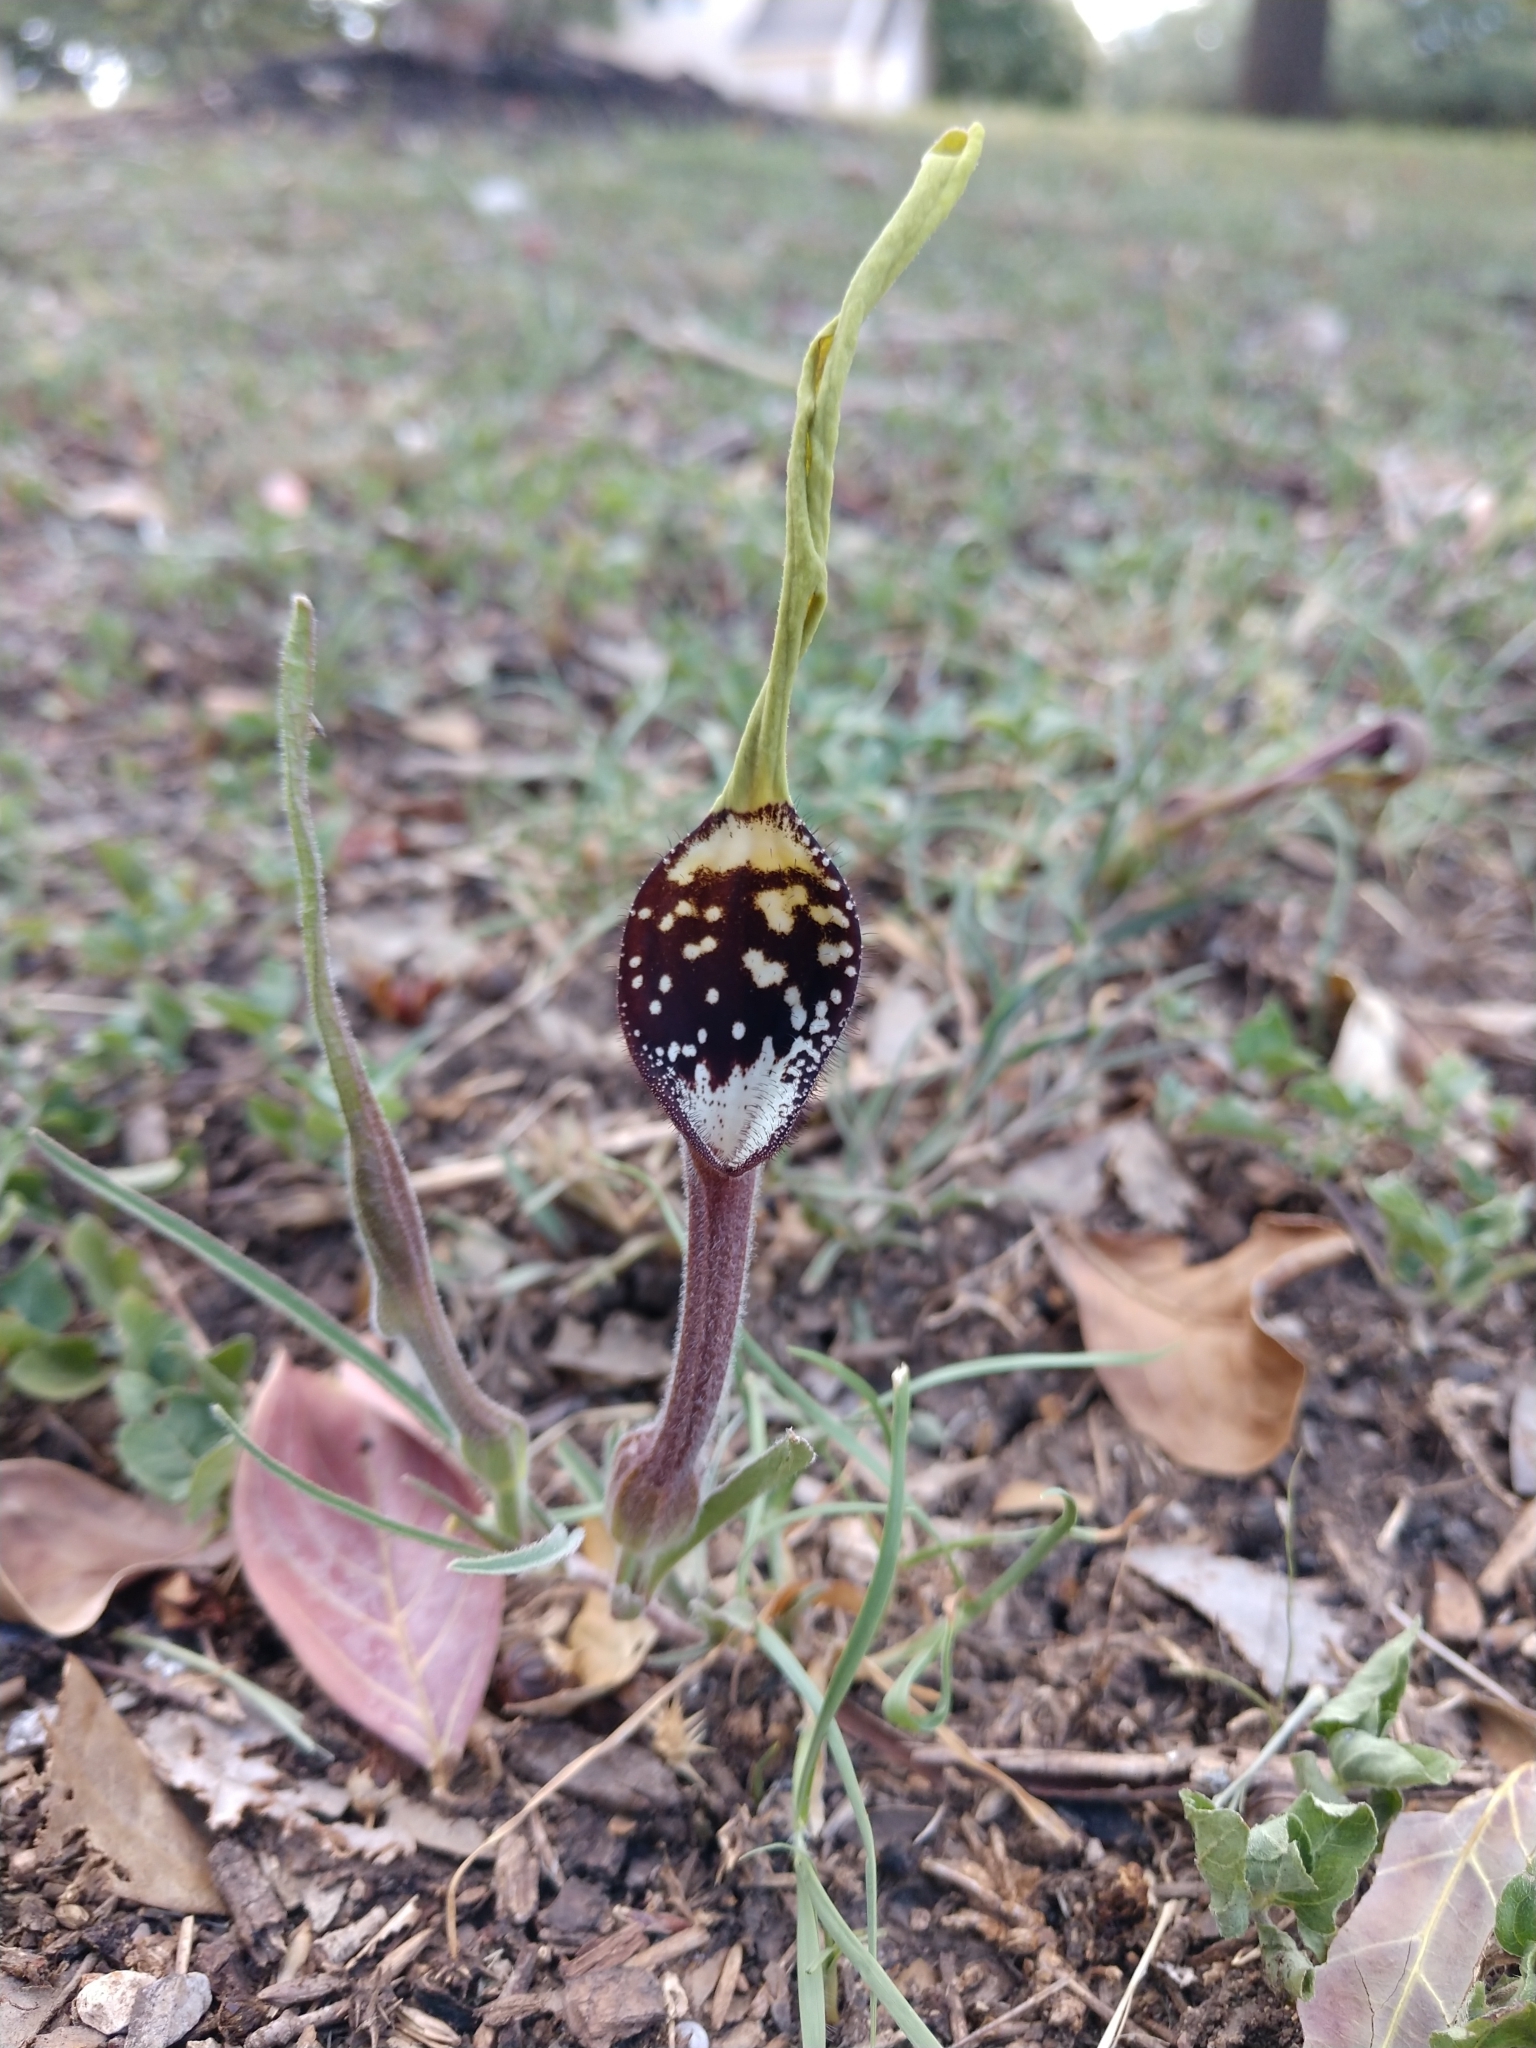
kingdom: Plantae
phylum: Tracheophyta
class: Magnoliopsida
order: Piperales
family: Aristolochiaceae
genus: Aristolochia
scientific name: Aristolochia erecta
